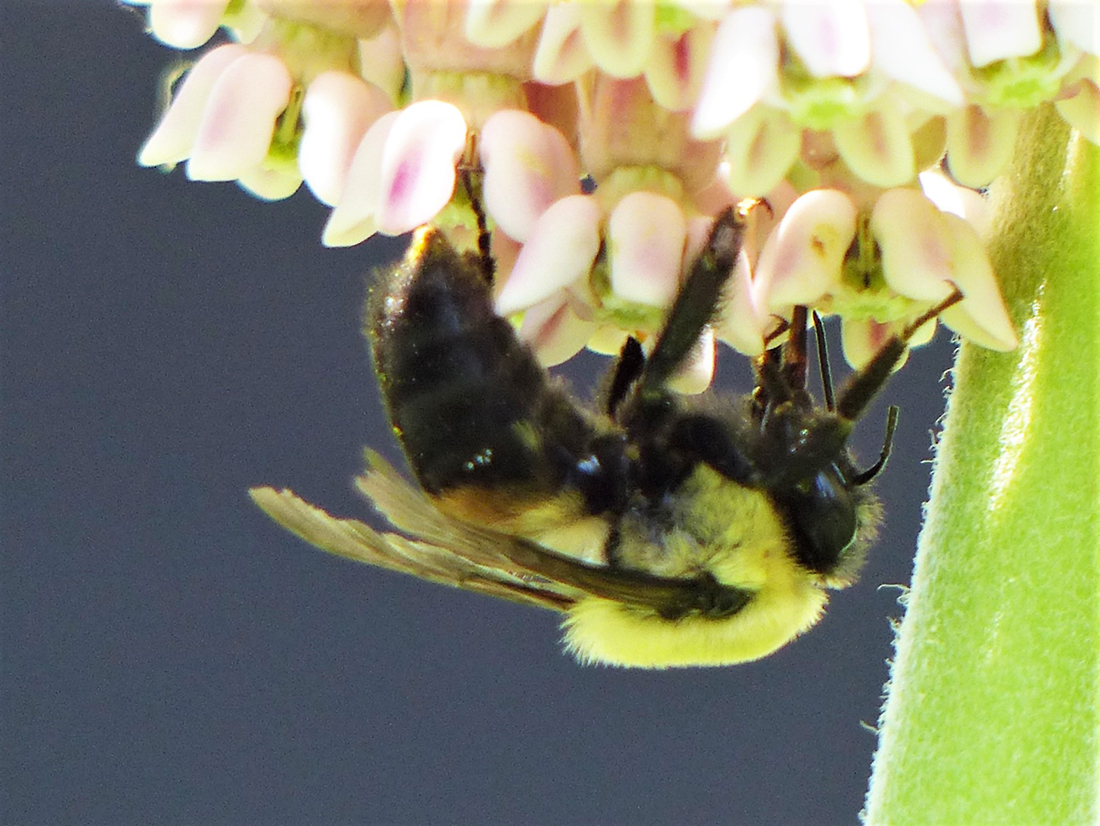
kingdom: Animalia
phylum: Arthropoda
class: Insecta
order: Hymenoptera
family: Apidae
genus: Bombus
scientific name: Bombus griseocollis
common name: Brown-belted bumble bee
